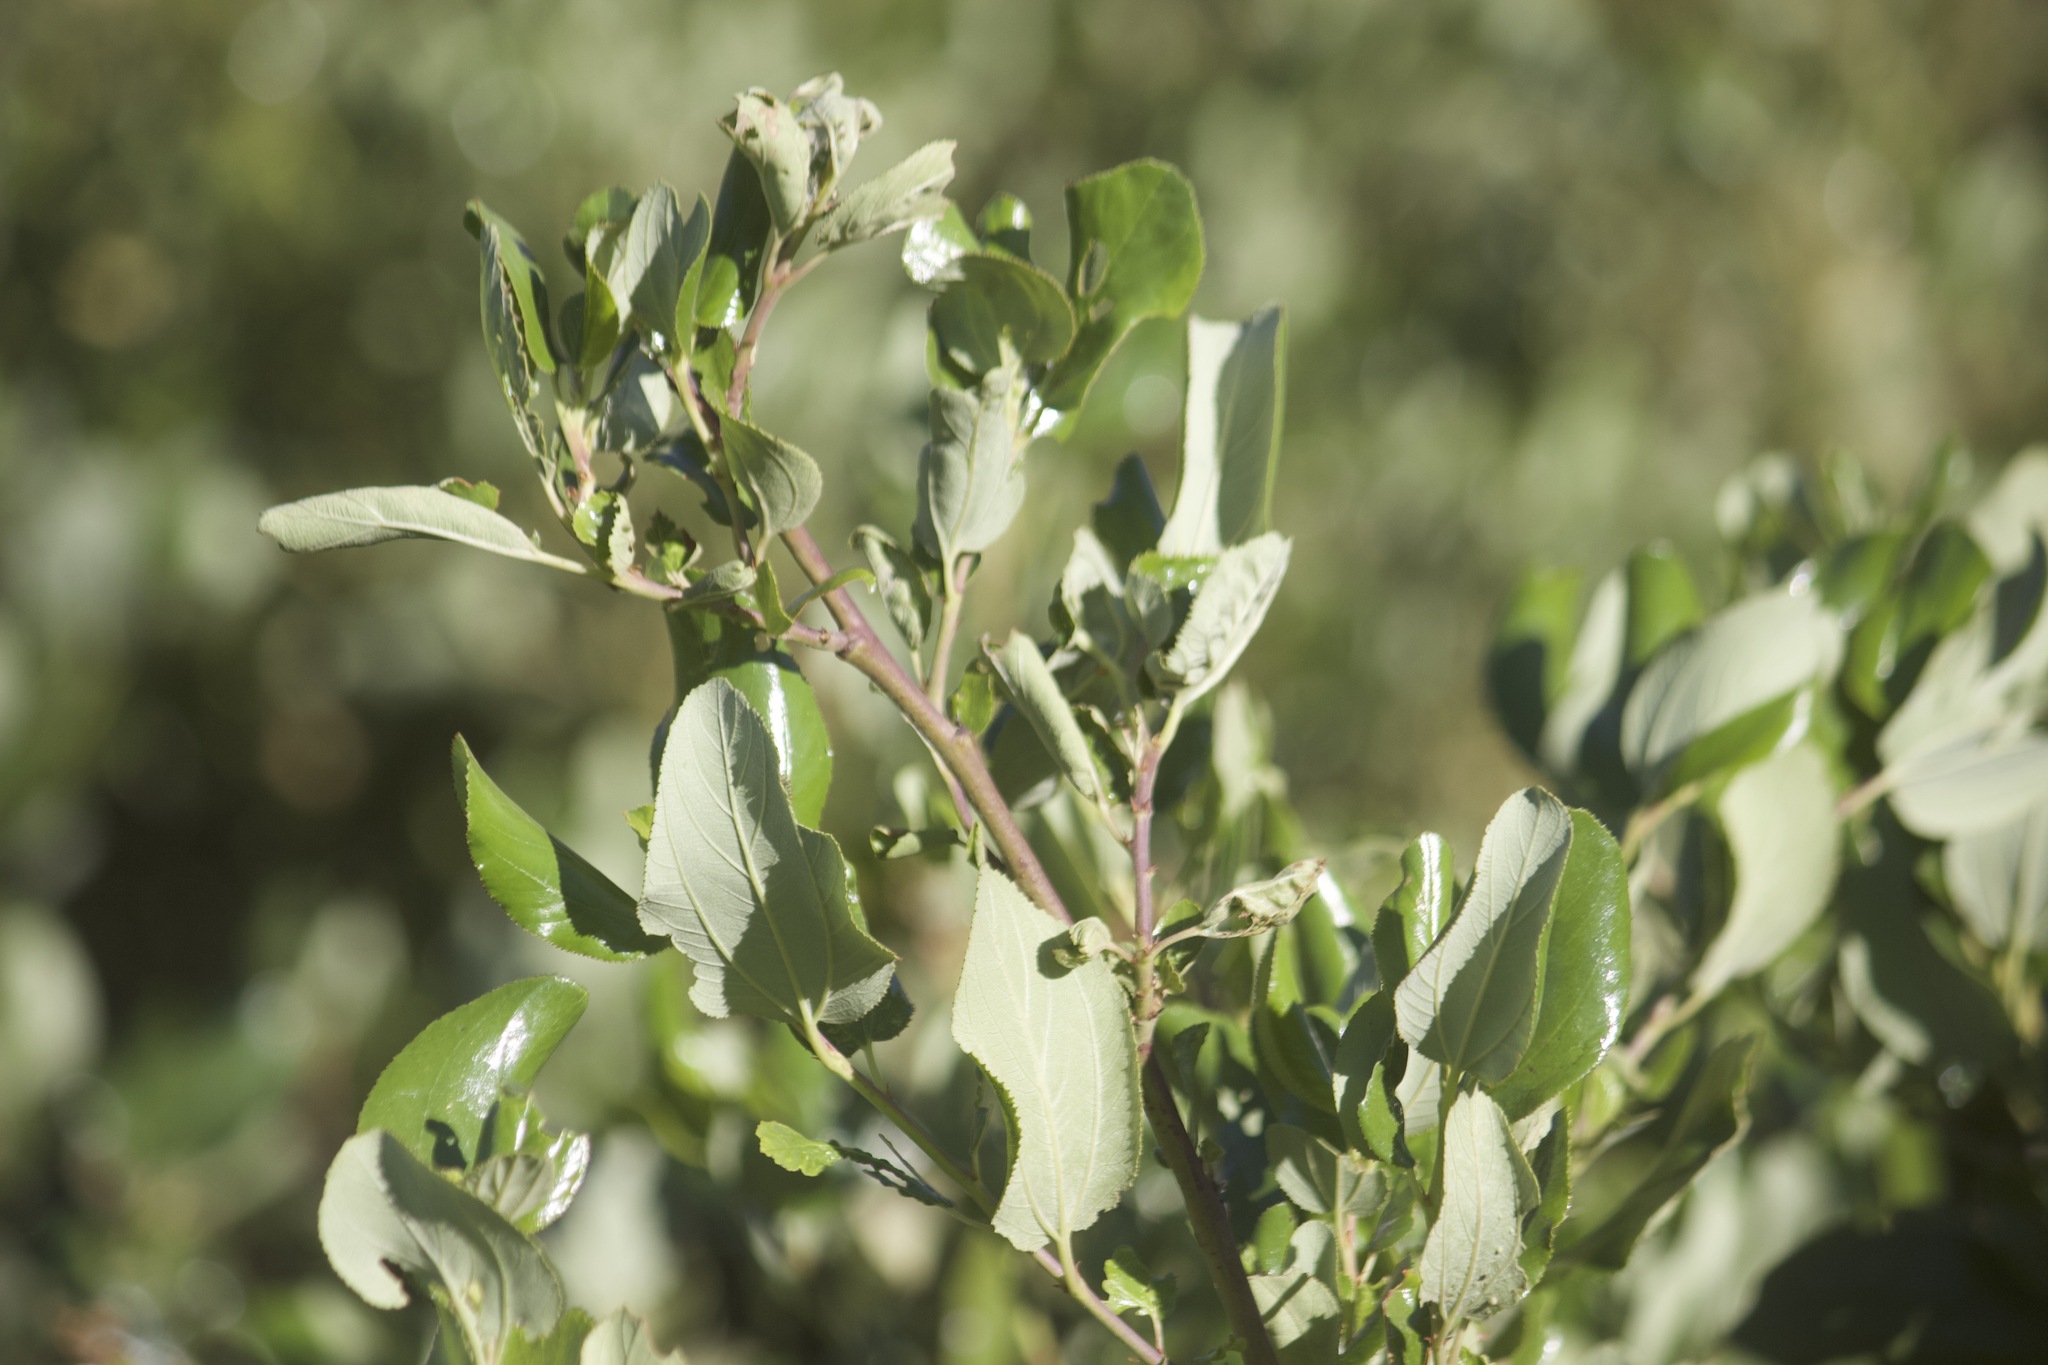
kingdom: Plantae
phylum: Tracheophyta
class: Magnoliopsida
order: Rosales
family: Rhamnaceae
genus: Ceanothus
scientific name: Ceanothus velutinus
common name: Snowbrush
